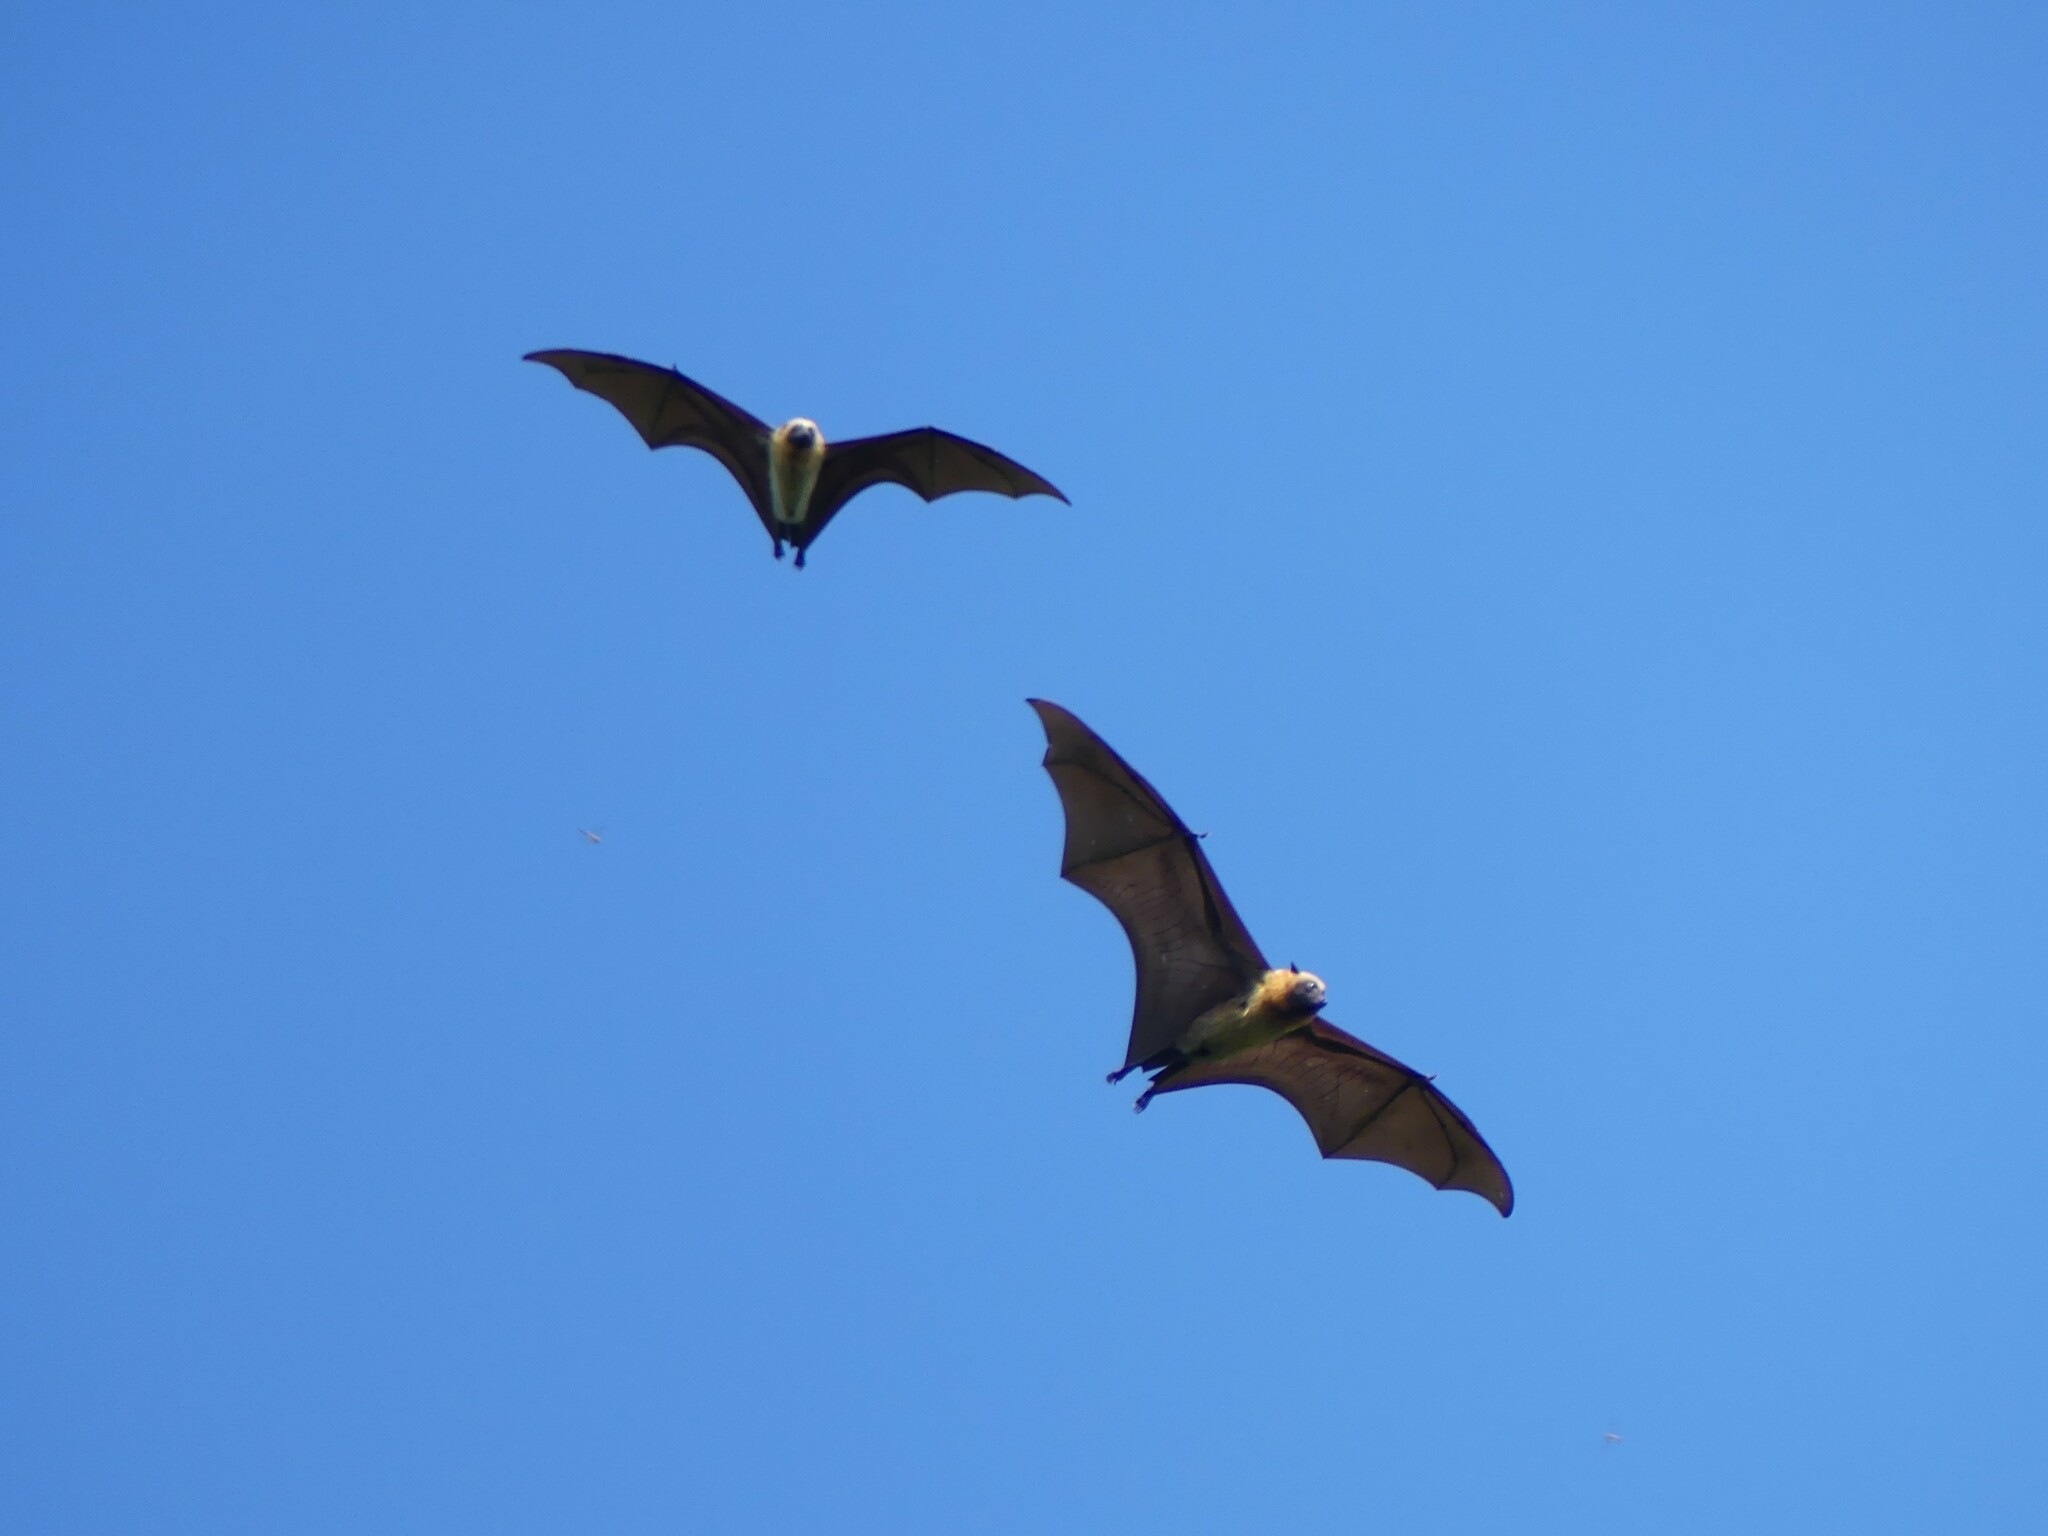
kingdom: Animalia
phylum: Chordata
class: Mammalia
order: Chiroptera
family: Pteropodidae
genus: Pteropus
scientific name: Pteropus rufus
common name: Madagascan flying fox
